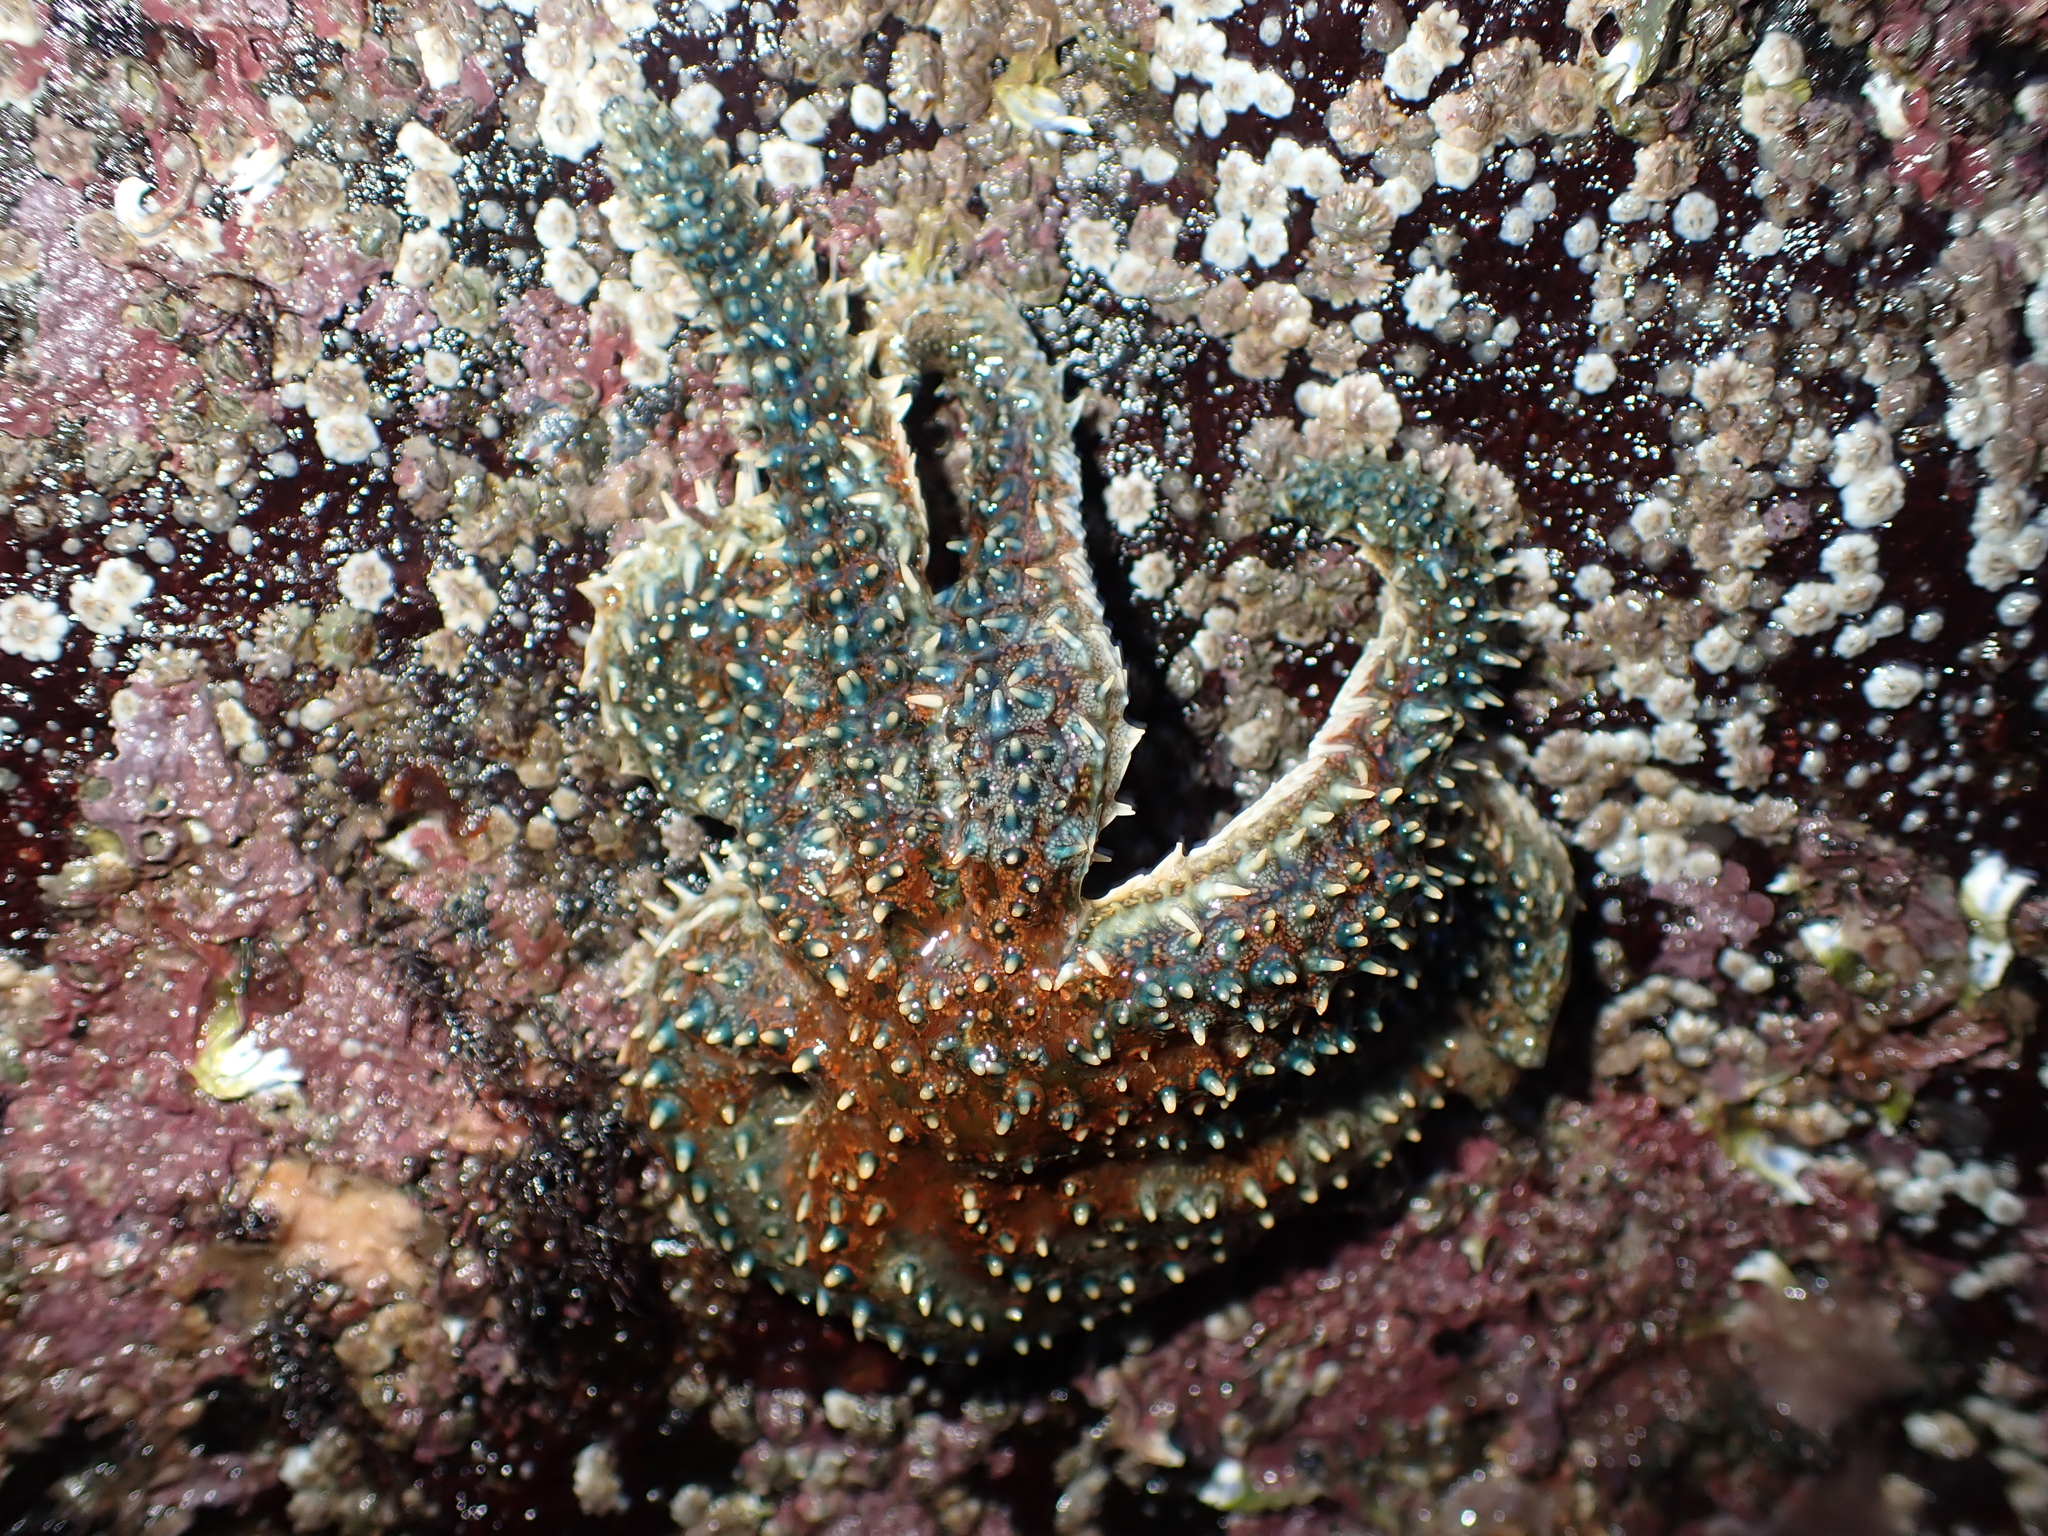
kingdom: Animalia
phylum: Echinodermata
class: Asteroidea
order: Forcipulatida
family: Asteriidae
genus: Coscinasterias
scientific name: Coscinasterias muricata
